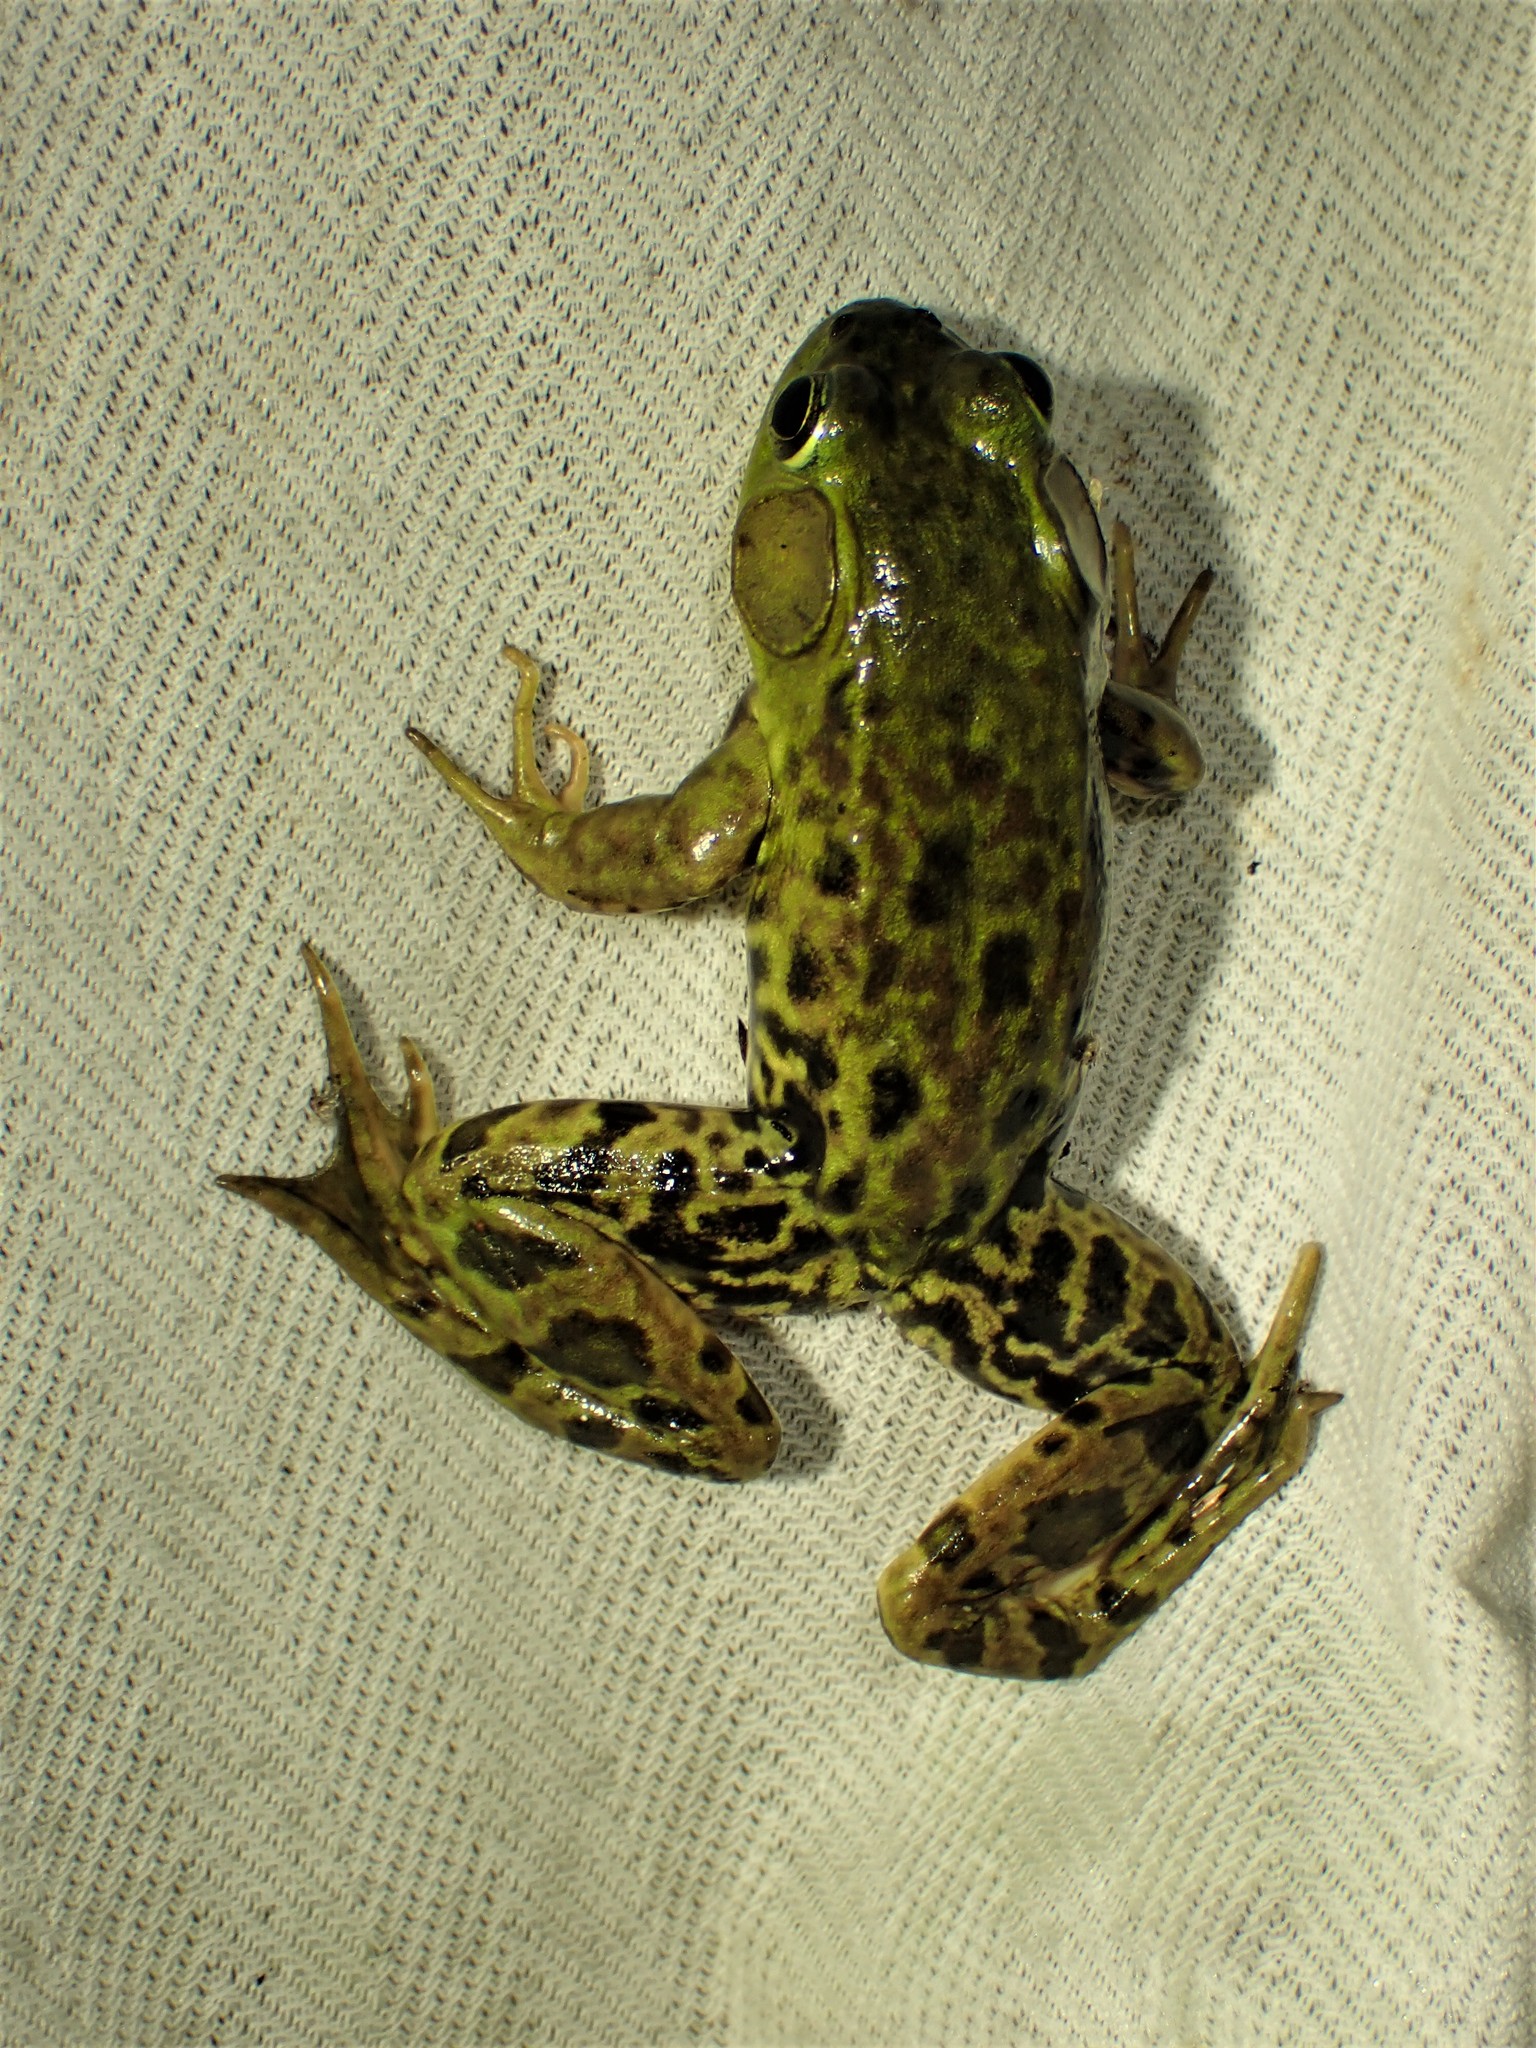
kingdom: Animalia
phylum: Chordata
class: Amphibia
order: Anura
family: Ranidae
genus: Lithobates
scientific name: Lithobates septentrionalis
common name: Mink frog
